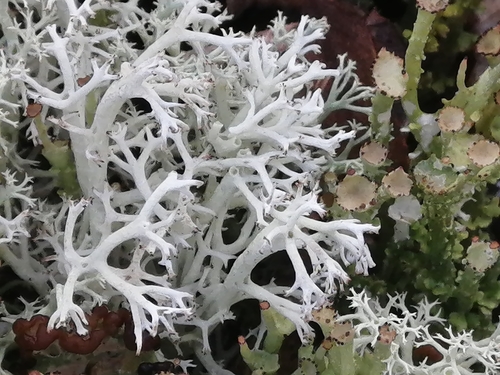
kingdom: Fungi
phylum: Ascomycota
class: Lecanoromycetes
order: Lecanorales
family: Cladoniaceae
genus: Cladonia
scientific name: Cladonia rangiferina
